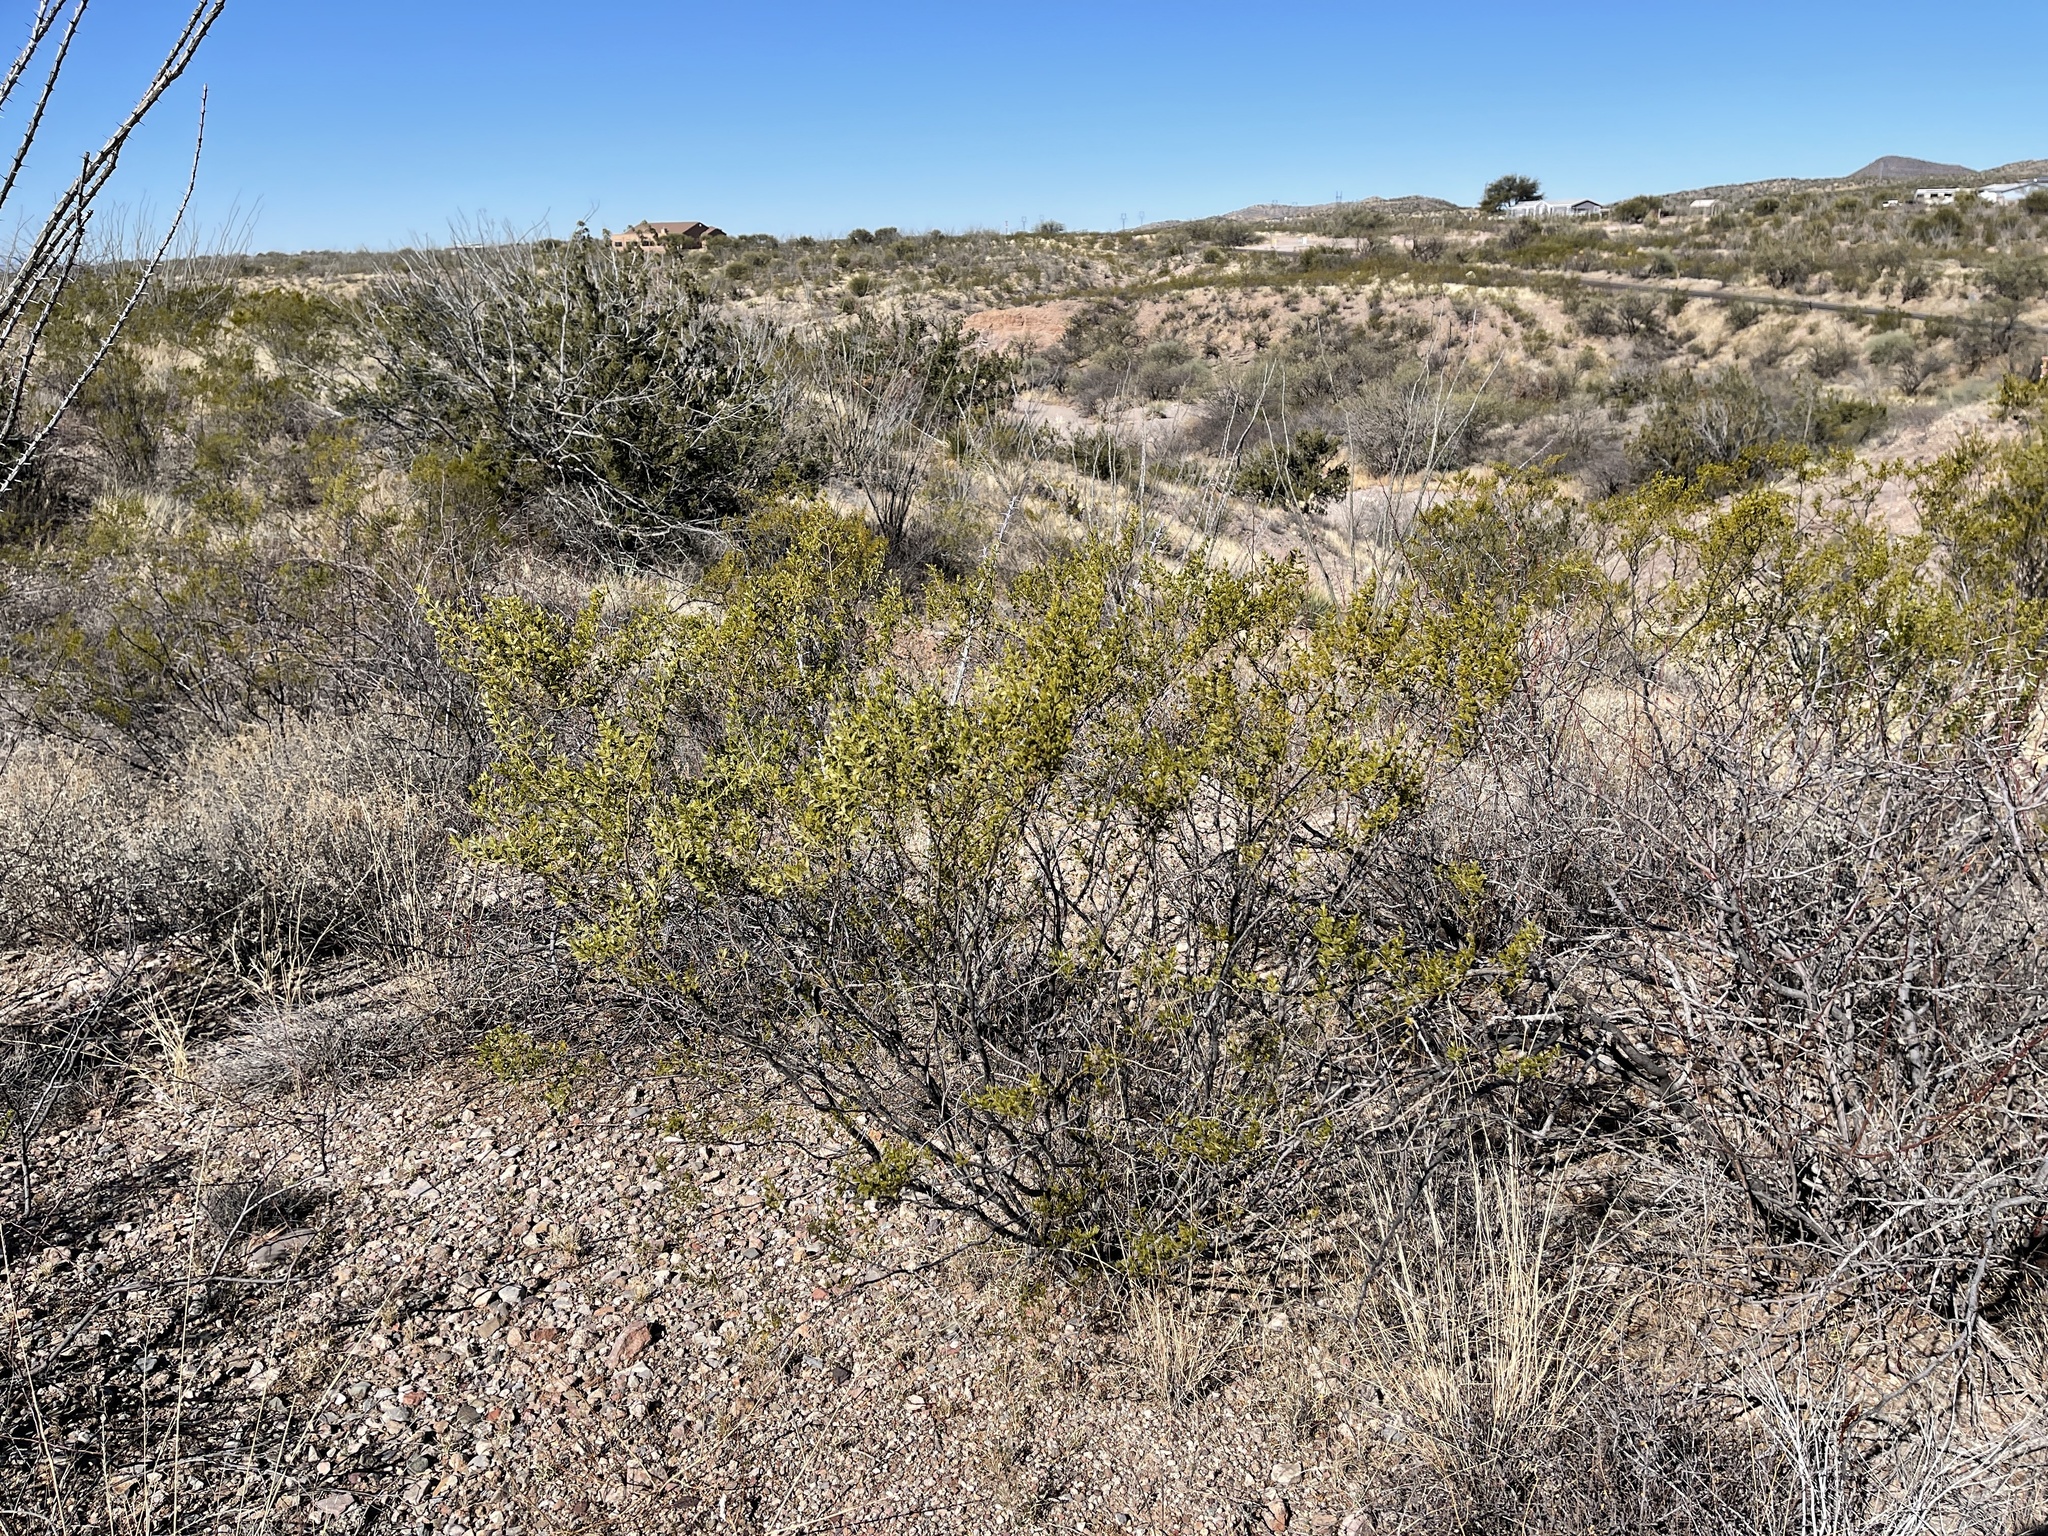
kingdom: Plantae
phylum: Tracheophyta
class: Magnoliopsida
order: Zygophyllales
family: Zygophyllaceae
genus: Larrea
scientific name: Larrea tridentata
